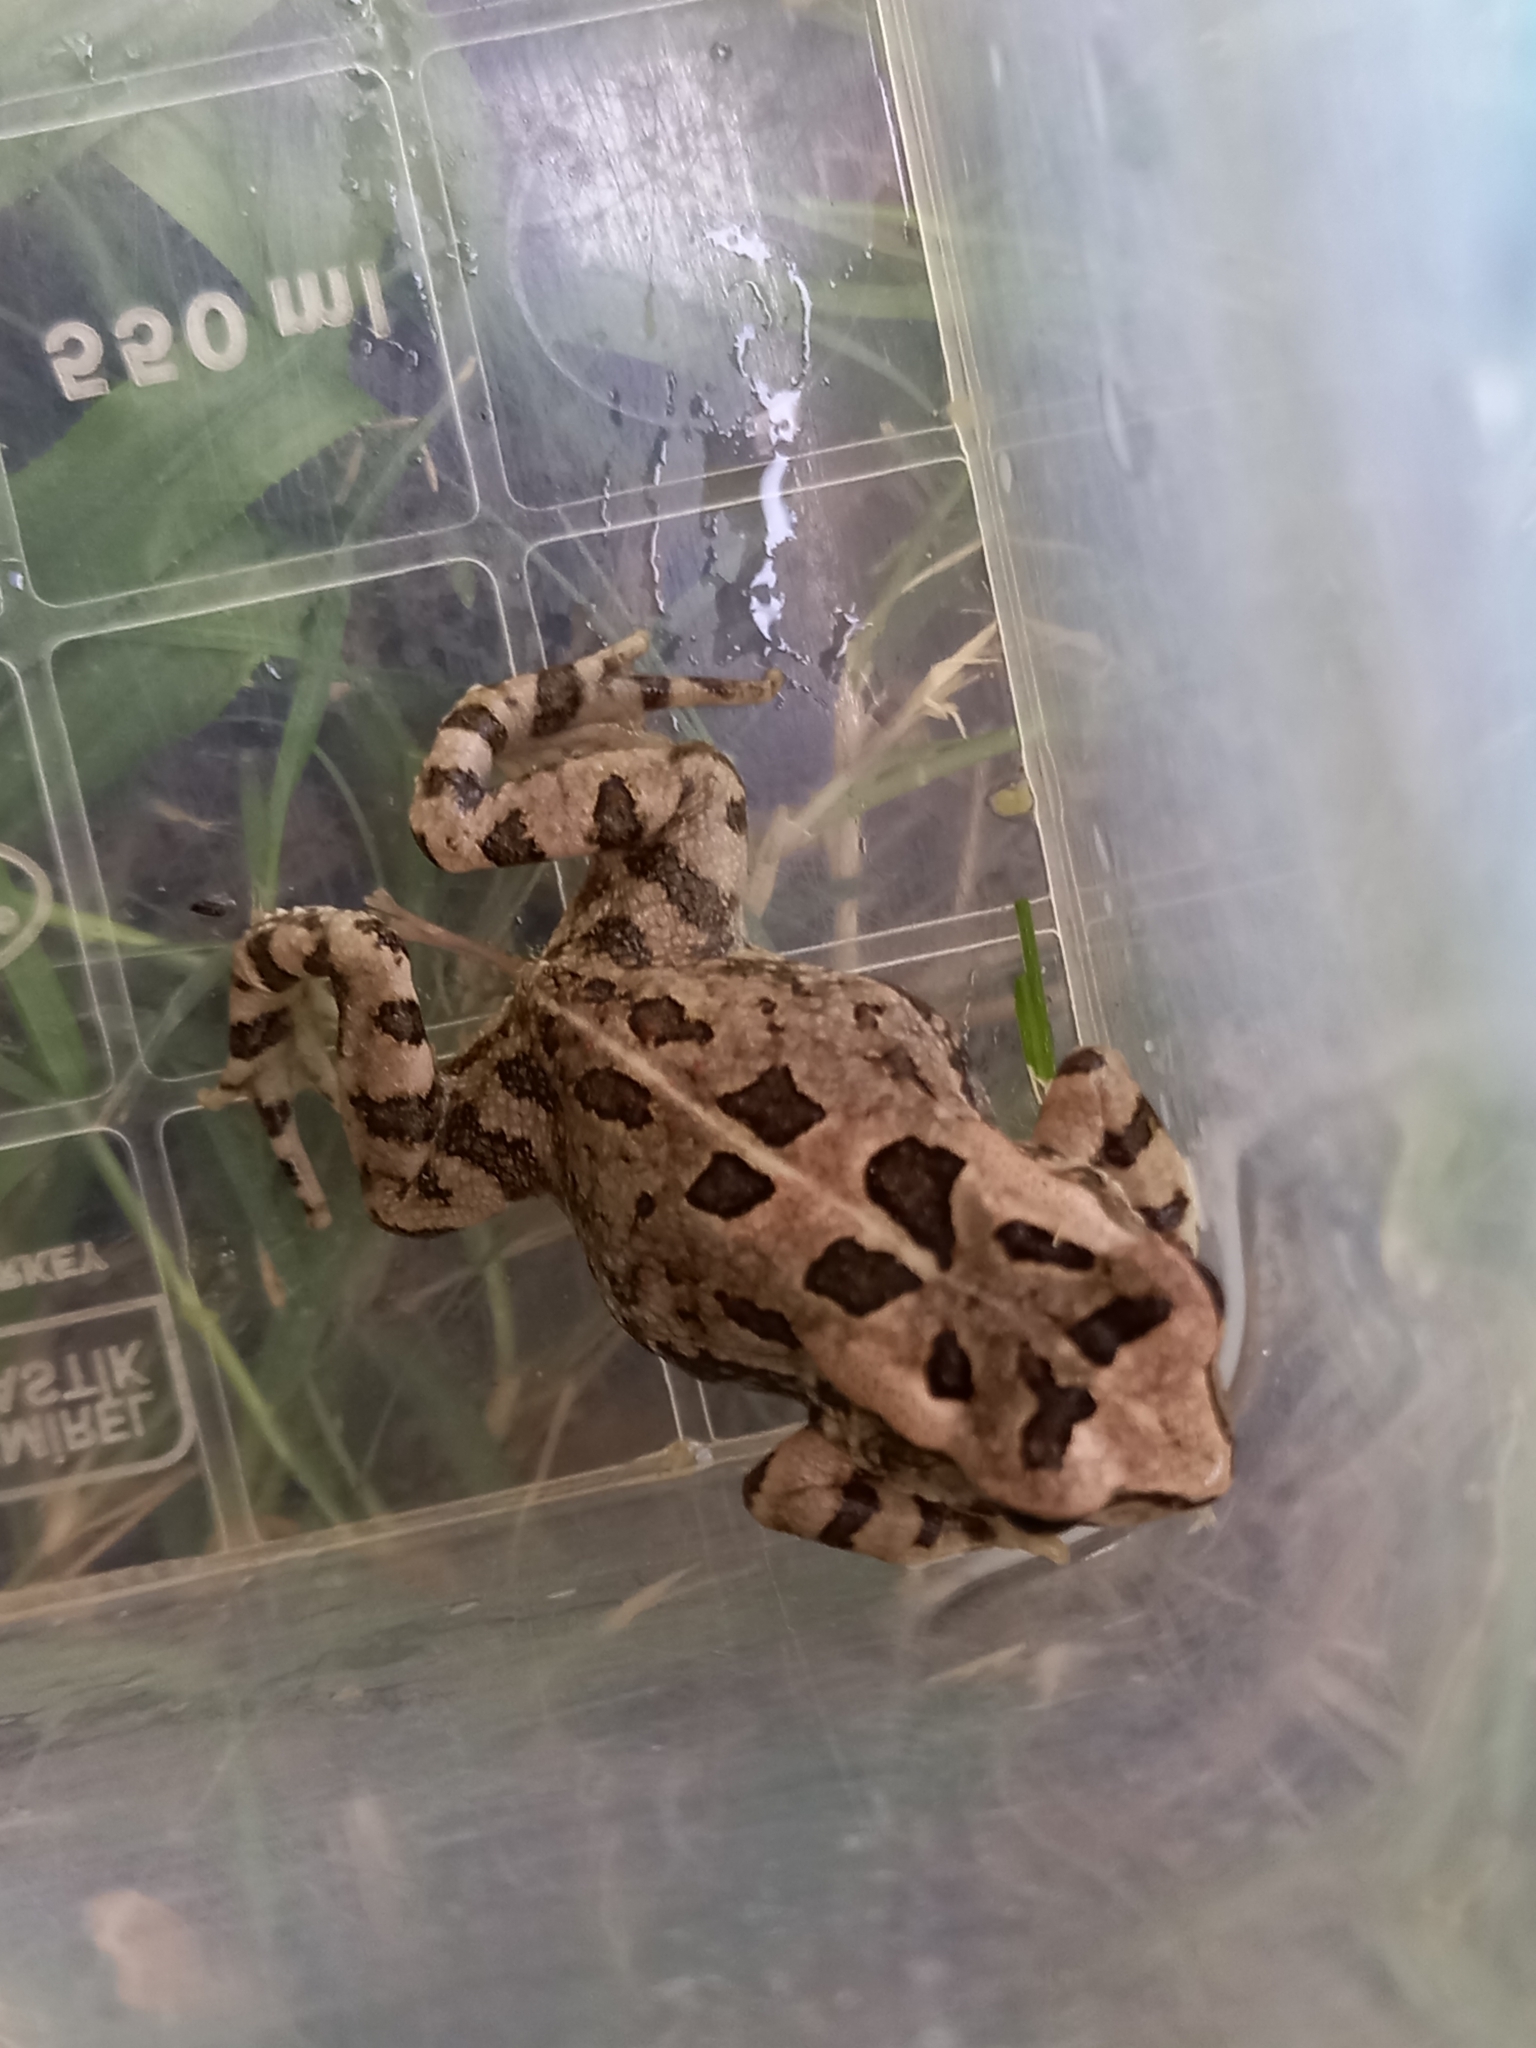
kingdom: Animalia
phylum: Chordata
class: Amphibia
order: Anura
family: Bufonidae
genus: Sclerophrys
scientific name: Sclerophrys capensis
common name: Ranger’s toad
